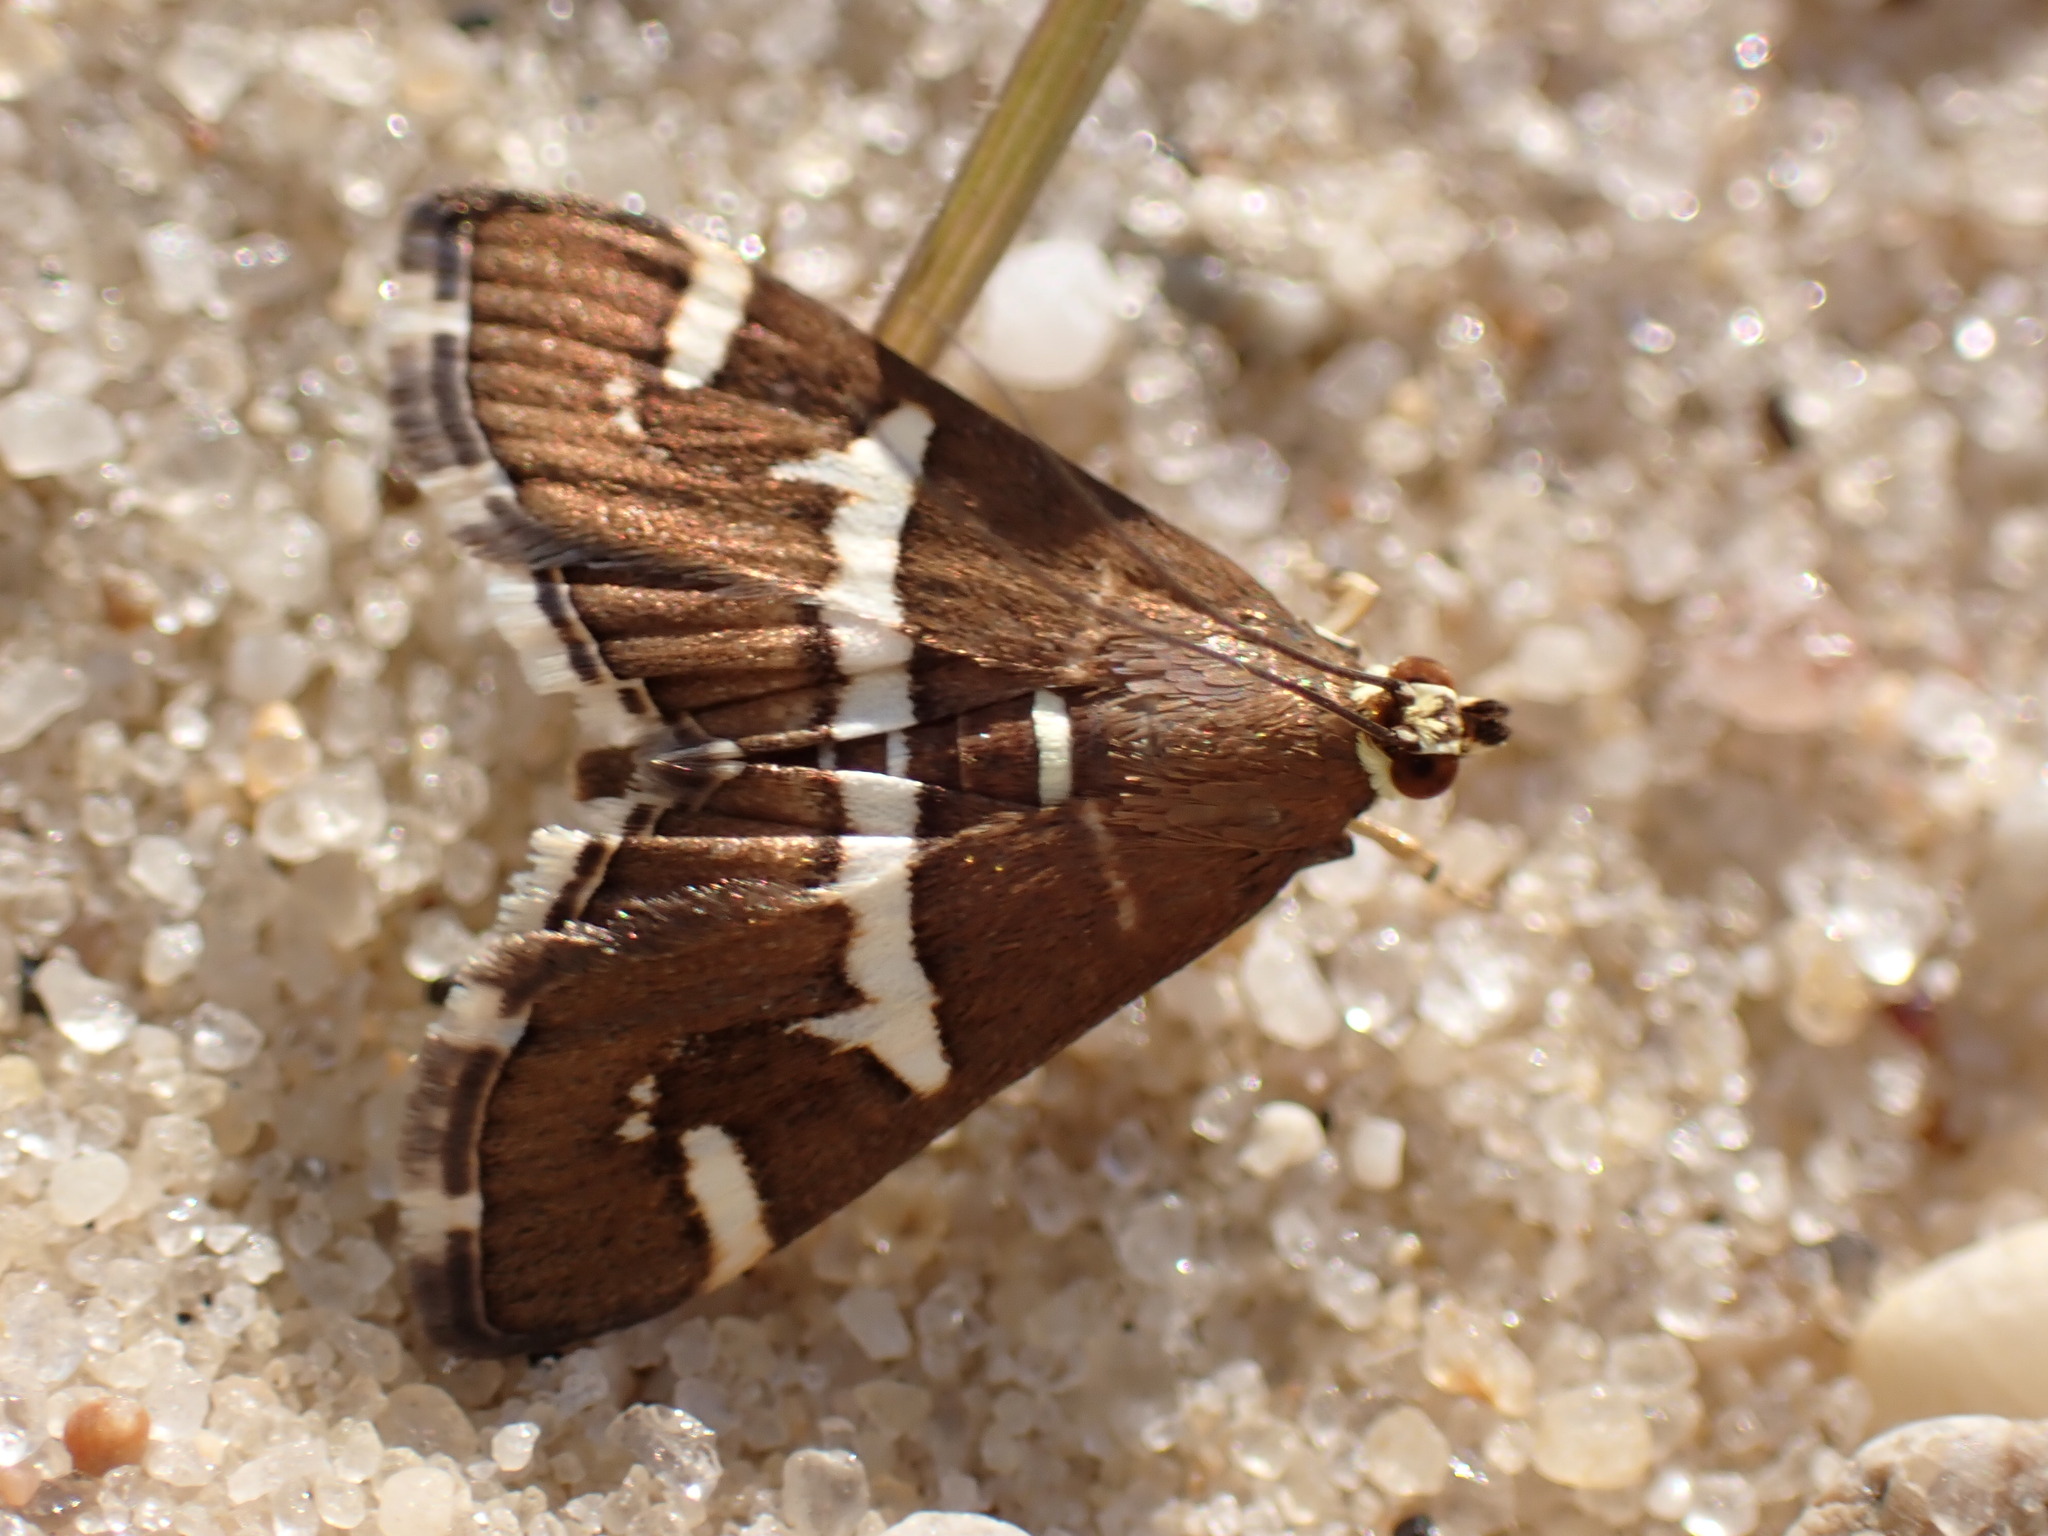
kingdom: Animalia
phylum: Arthropoda
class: Insecta
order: Lepidoptera
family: Crambidae
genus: Spoladea
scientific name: Spoladea recurvalis
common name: Beet webworm moth
